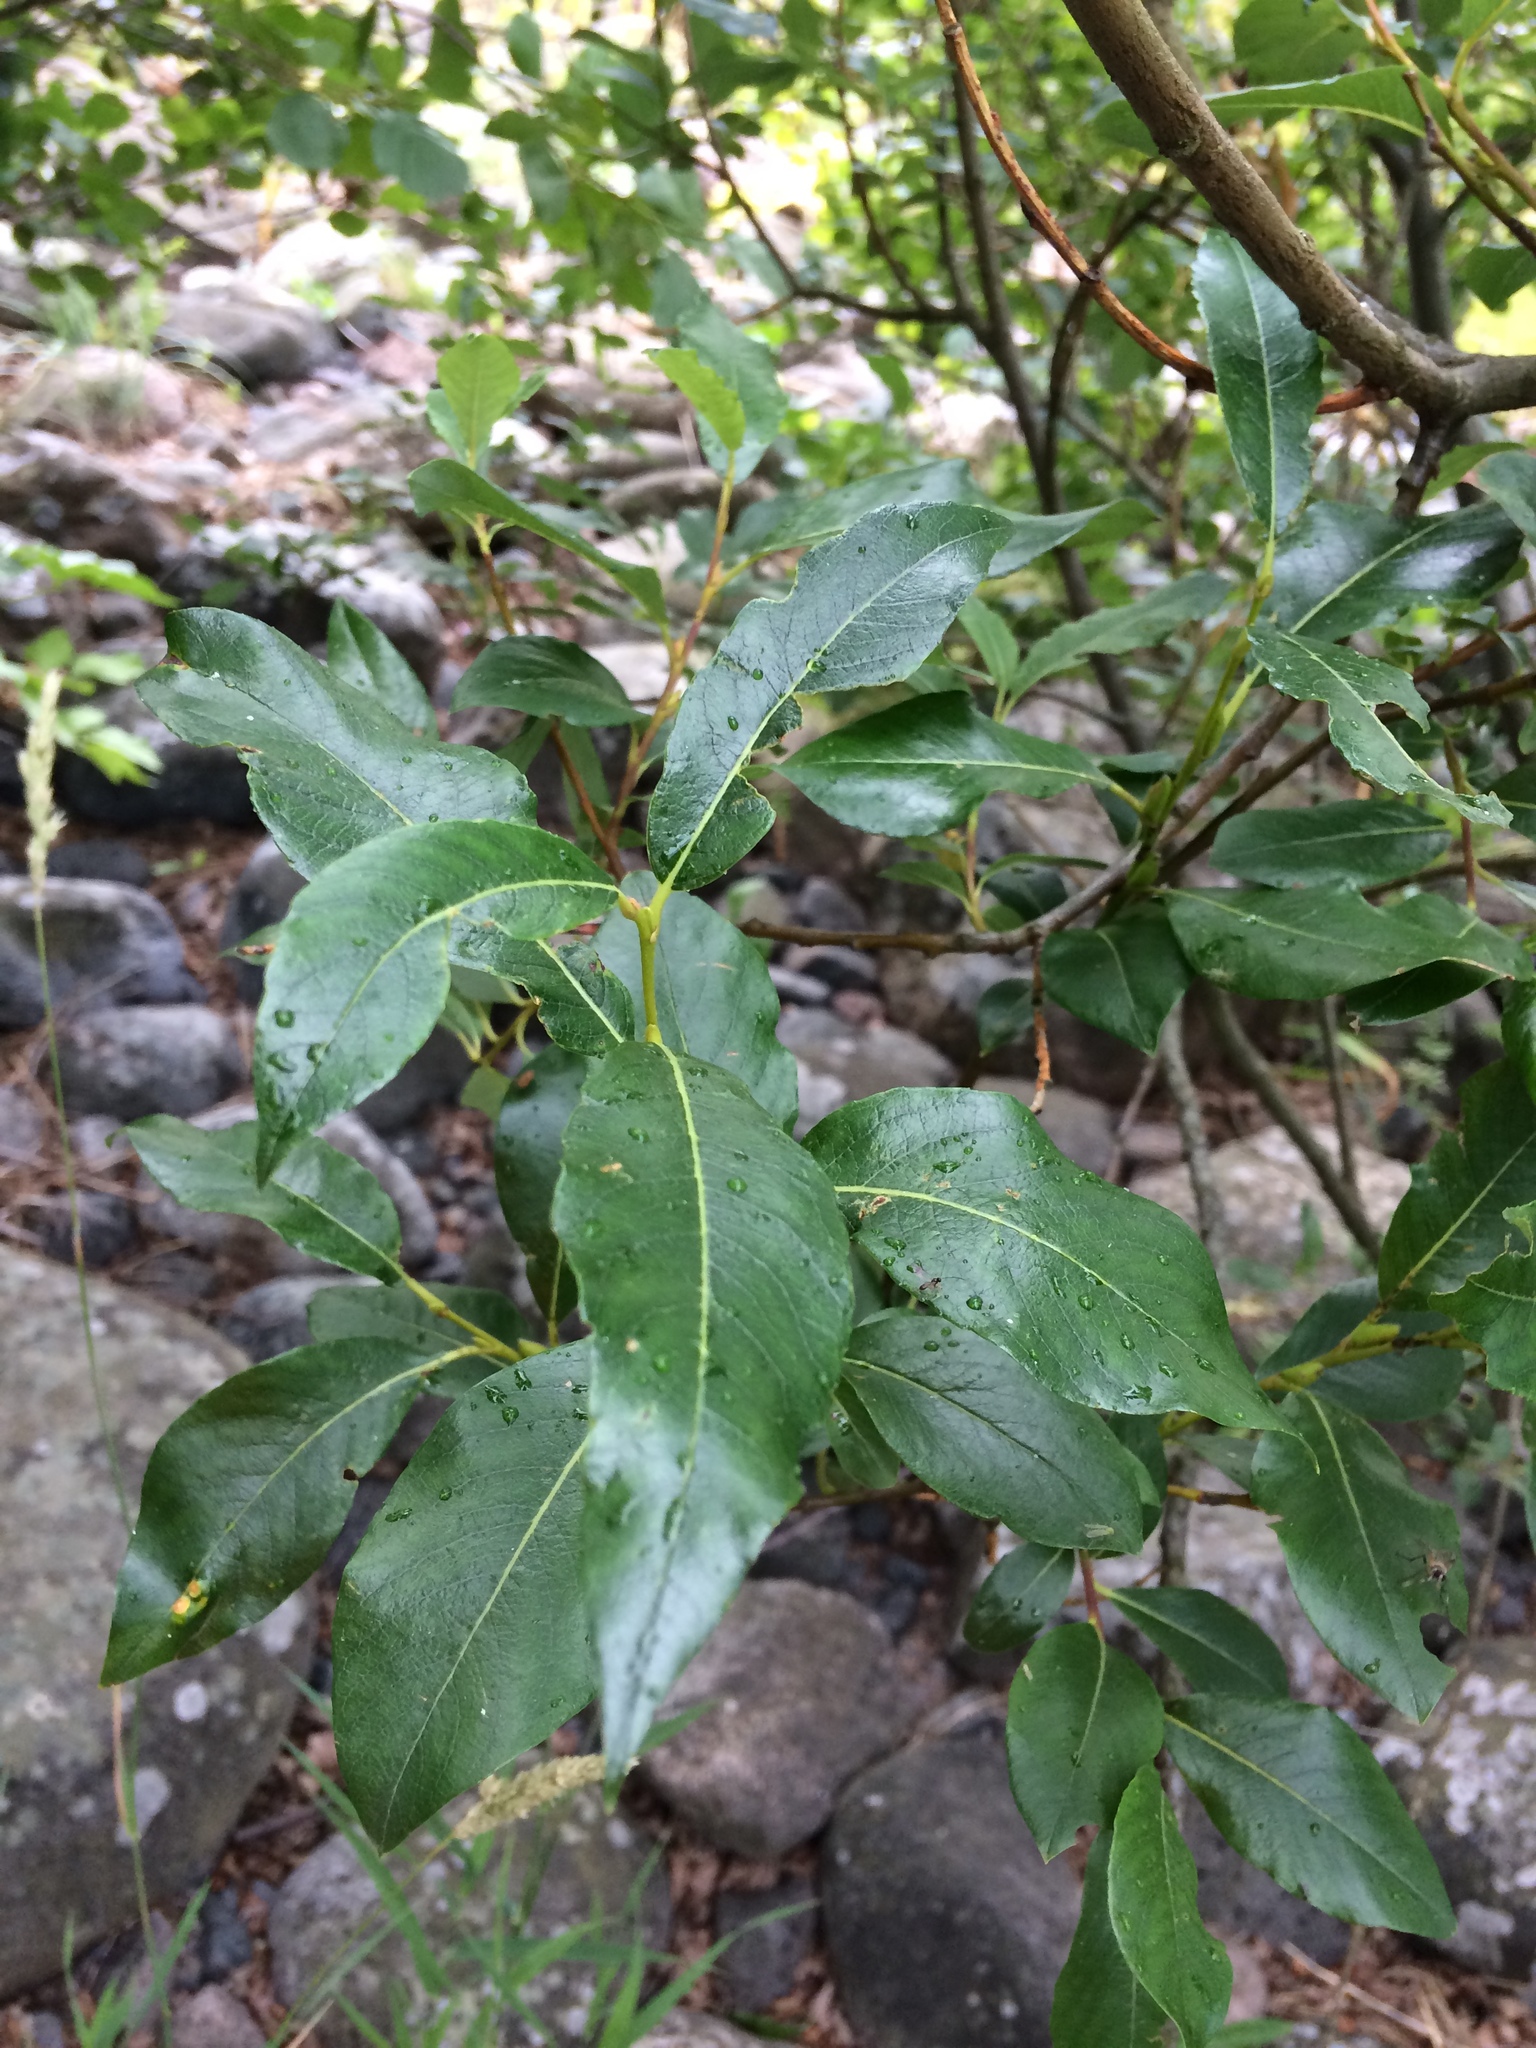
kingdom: Plantae
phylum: Tracheophyta
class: Magnoliopsida
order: Malpighiales
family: Salicaceae
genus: Salix
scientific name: Salix phylicifolia
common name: Tea-leaved willow
